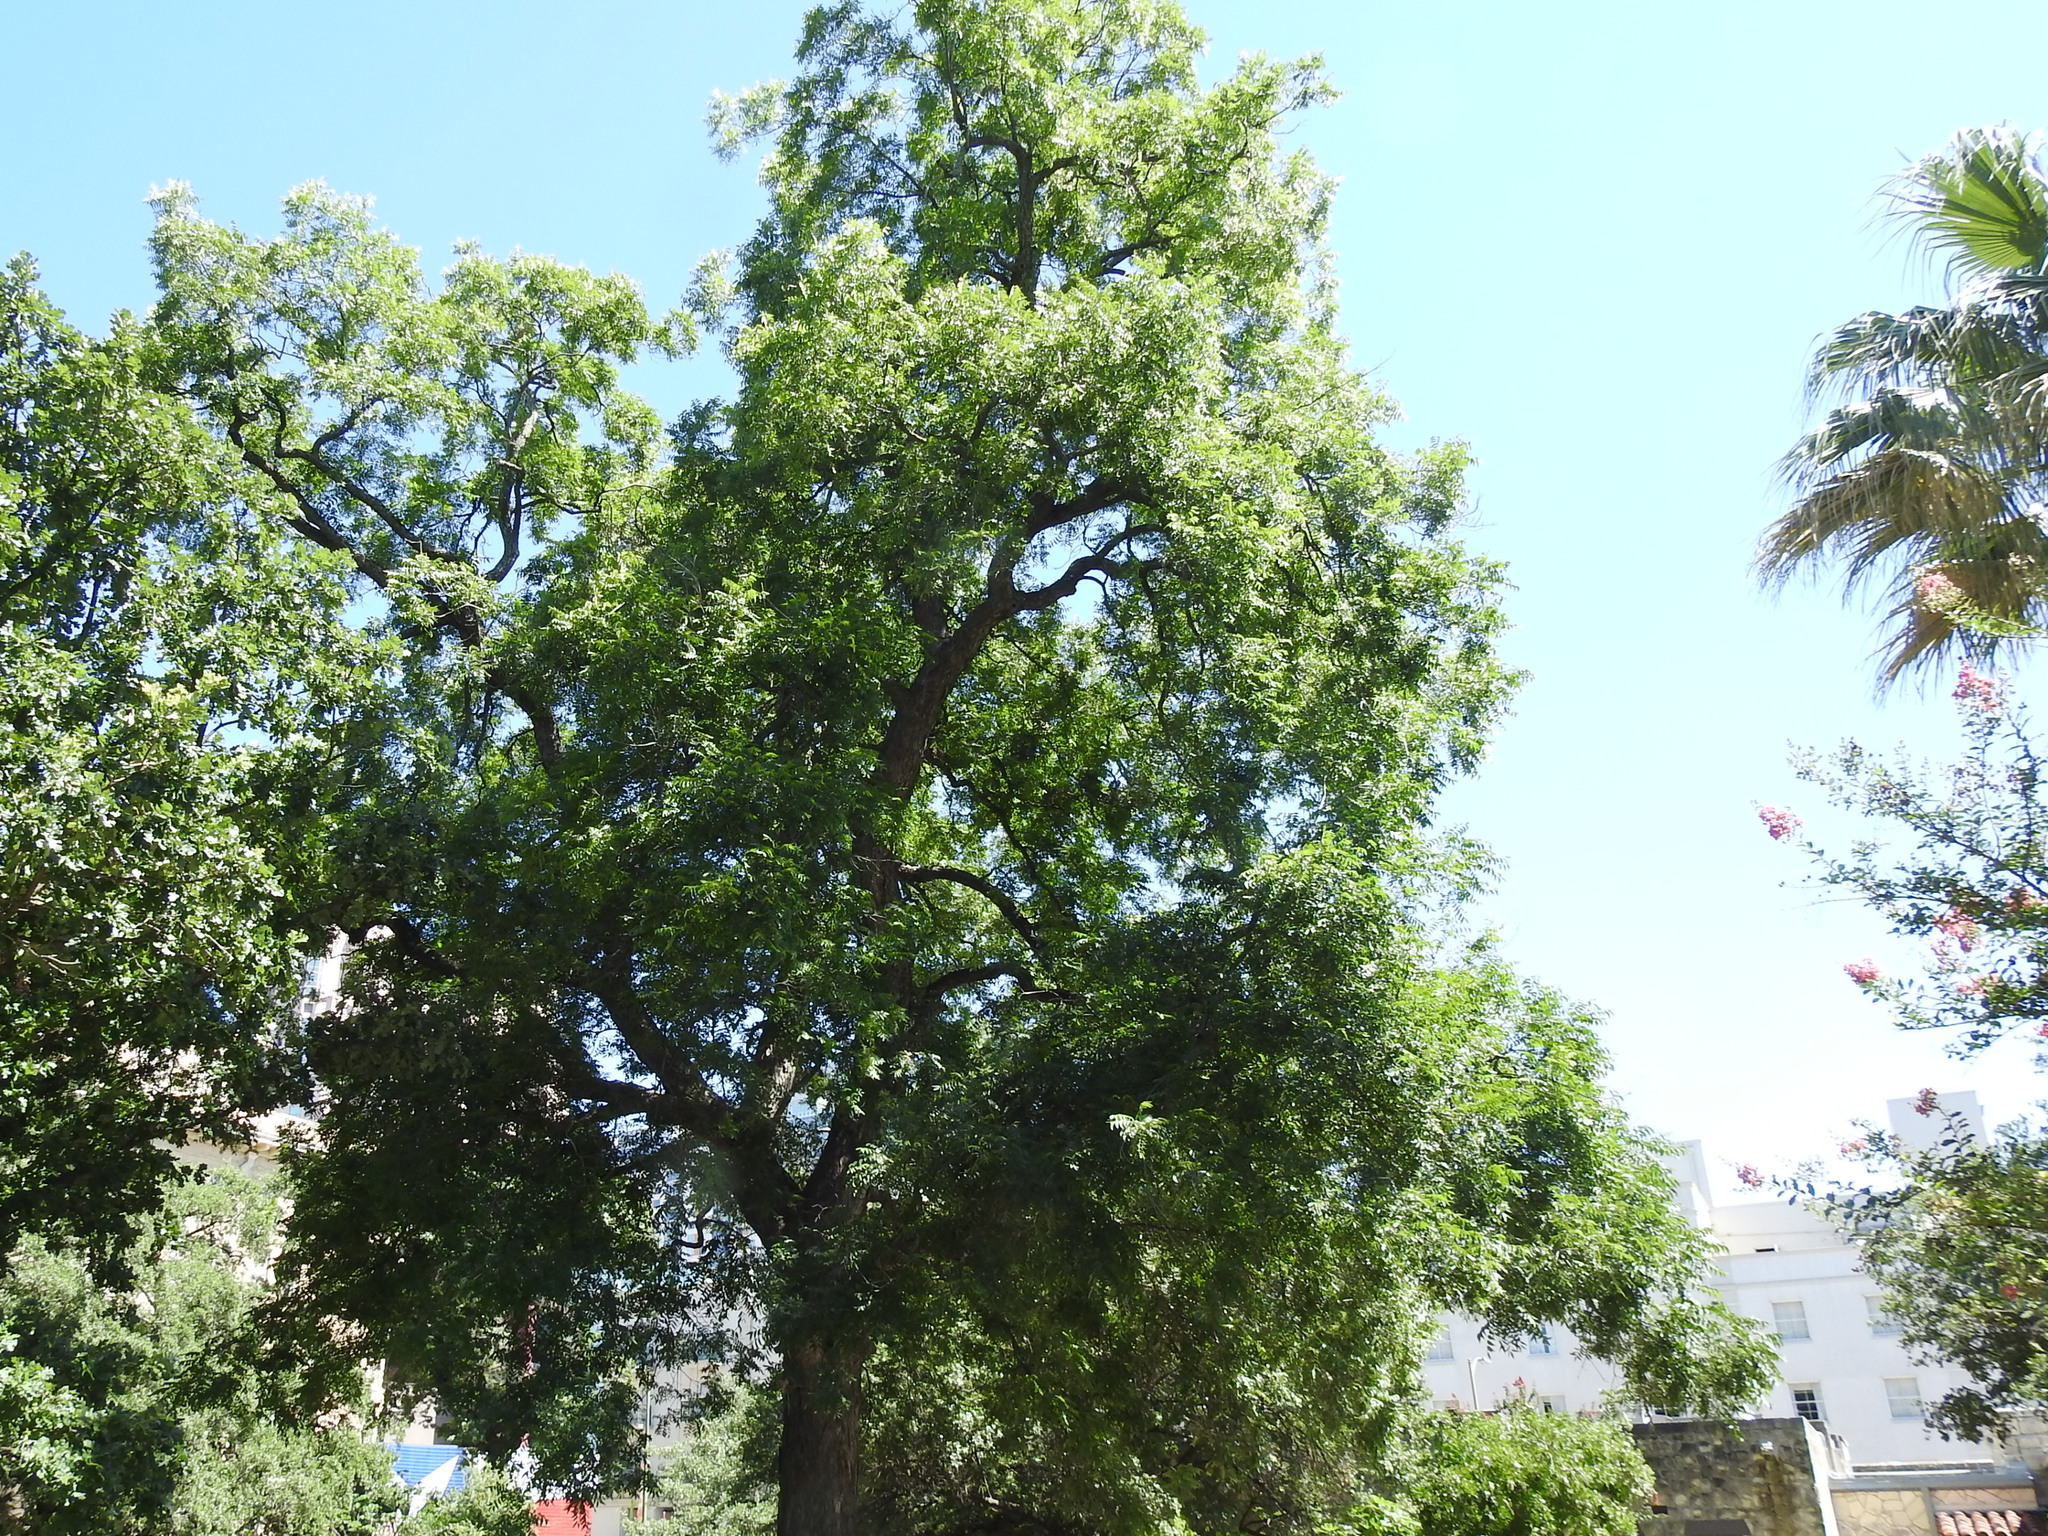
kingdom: Plantae
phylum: Tracheophyta
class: Magnoliopsida
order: Fagales
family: Juglandaceae
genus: Carya
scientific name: Carya illinoinensis
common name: Pecan
